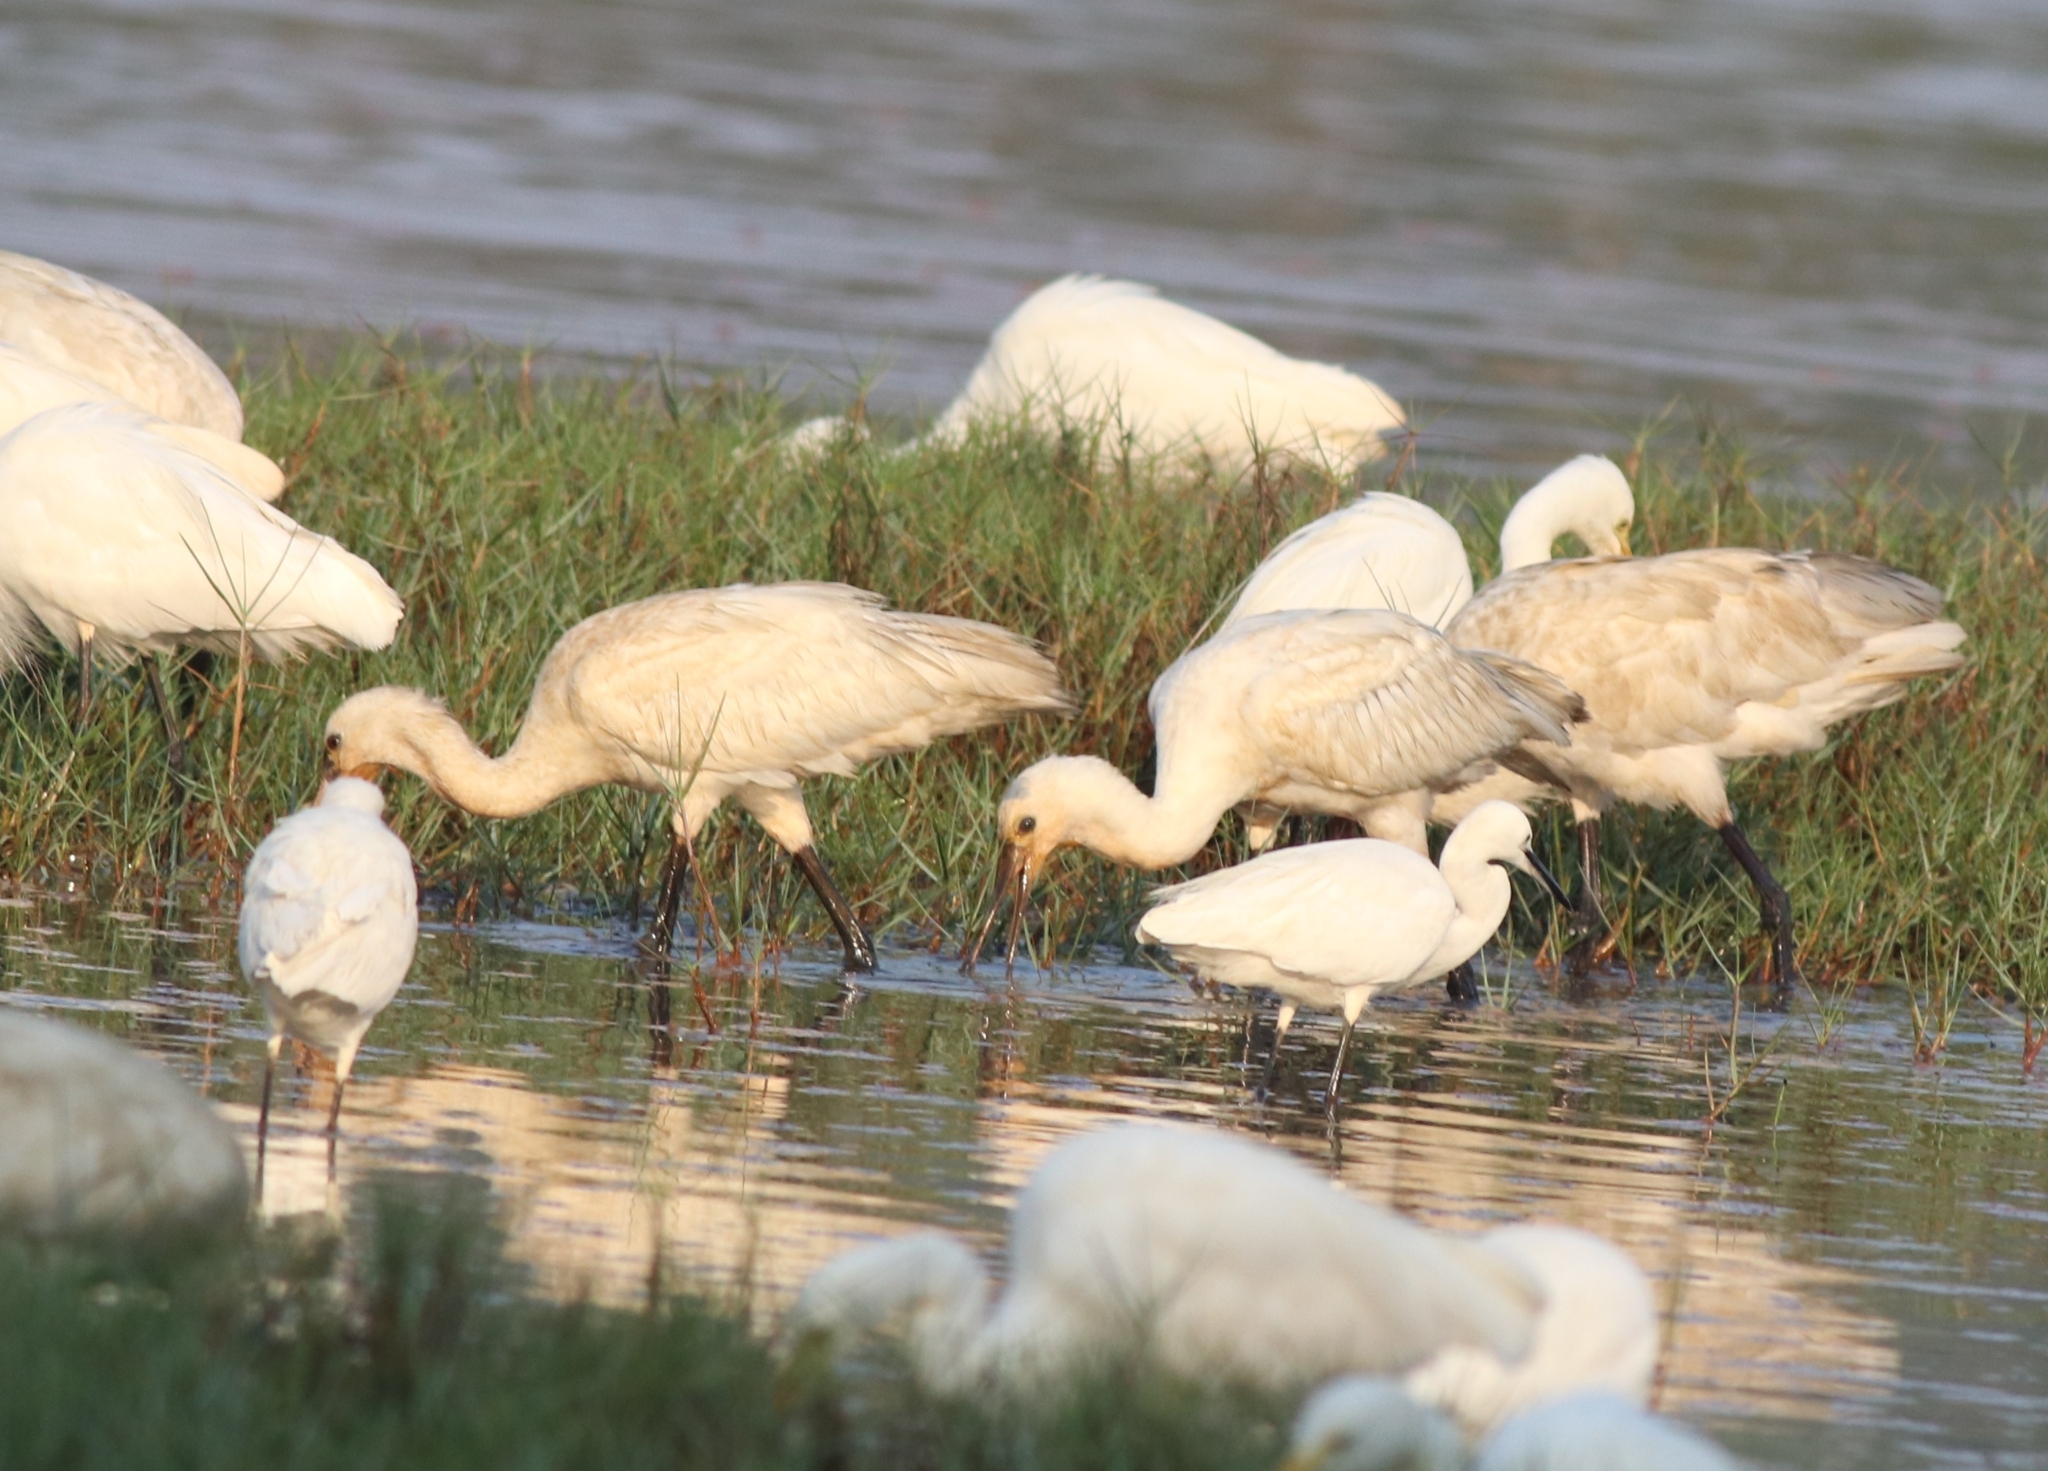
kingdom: Animalia
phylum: Chordata
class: Aves
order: Pelecaniformes
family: Threskiornithidae
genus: Platalea
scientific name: Platalea leucorodia
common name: Eurasian spoonbill
